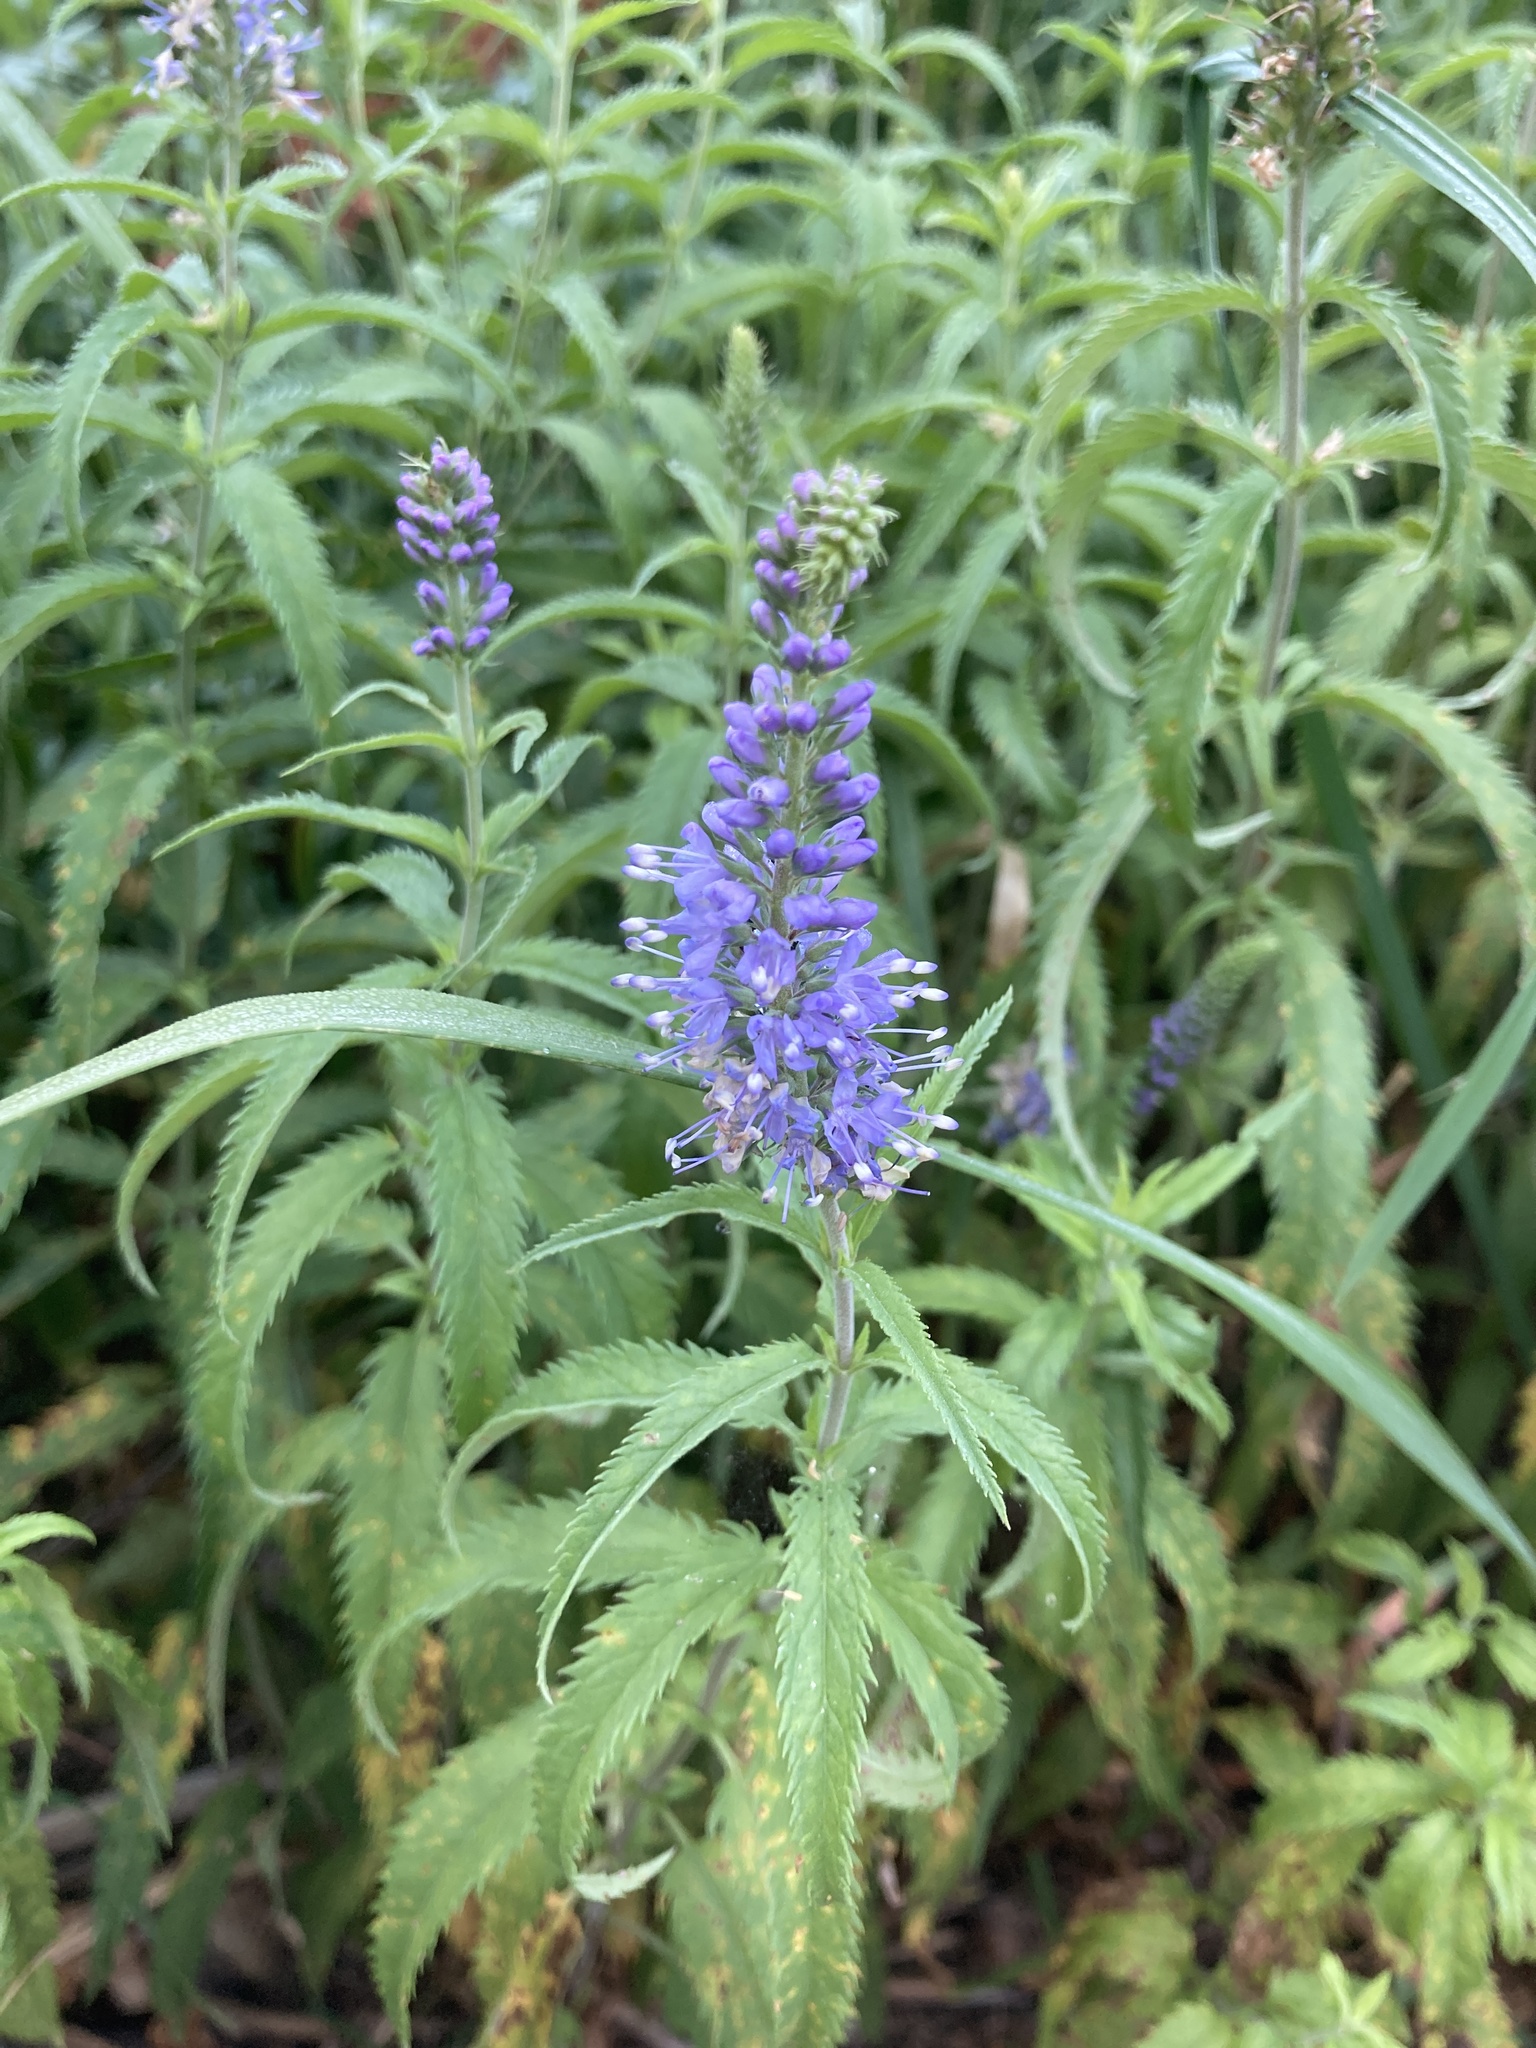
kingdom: Plantae
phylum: Tracheophyta
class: Magnoliopsida
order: Lamiales
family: Plantaginaceae
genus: Veronica
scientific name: Veronica longifolia
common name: Garden speedwell
